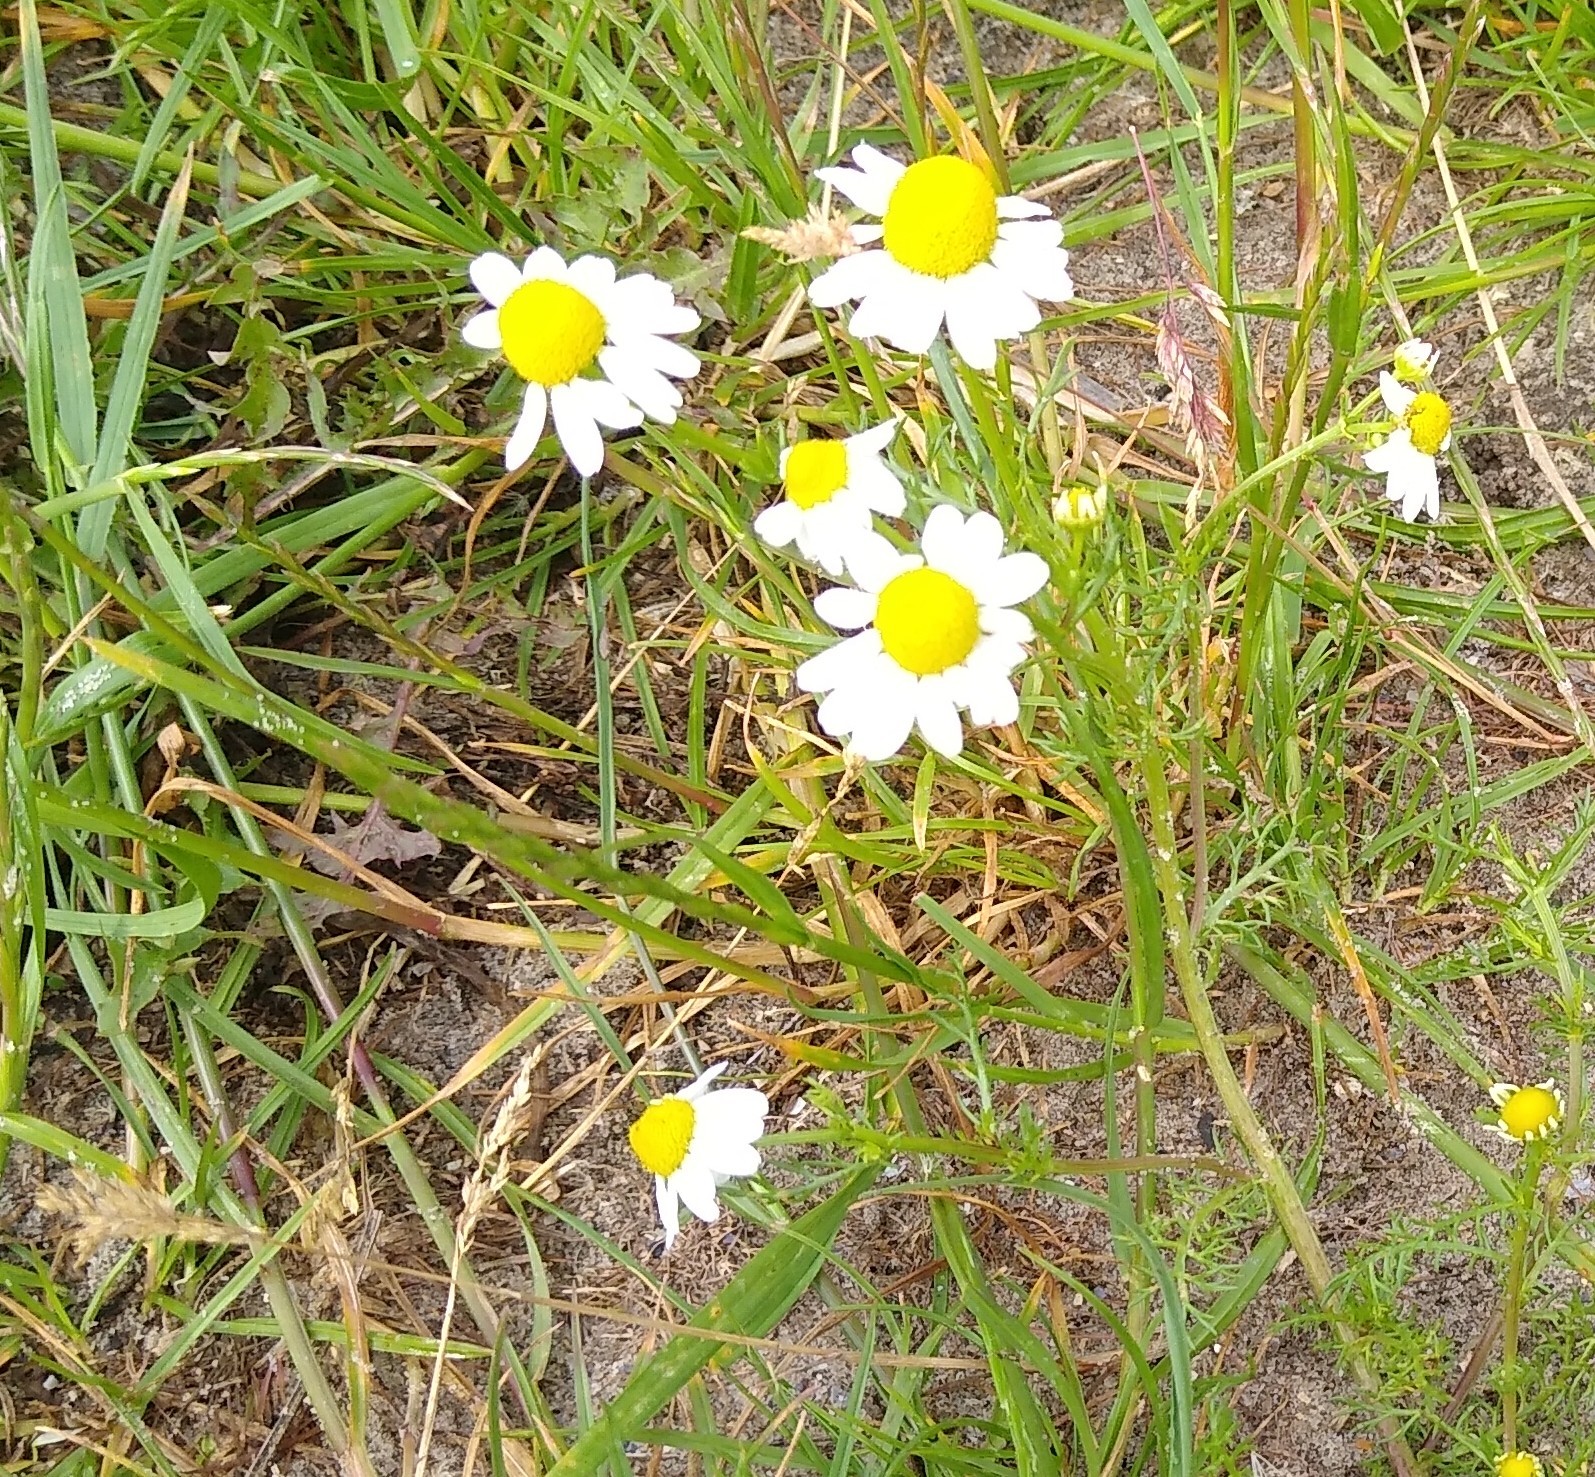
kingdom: Plantae
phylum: Tracheophyta
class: Magnoliopsida
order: Asterales
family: Asteraceae
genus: Matricaria
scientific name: Matricaria chamomilla
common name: Scented mayweed
